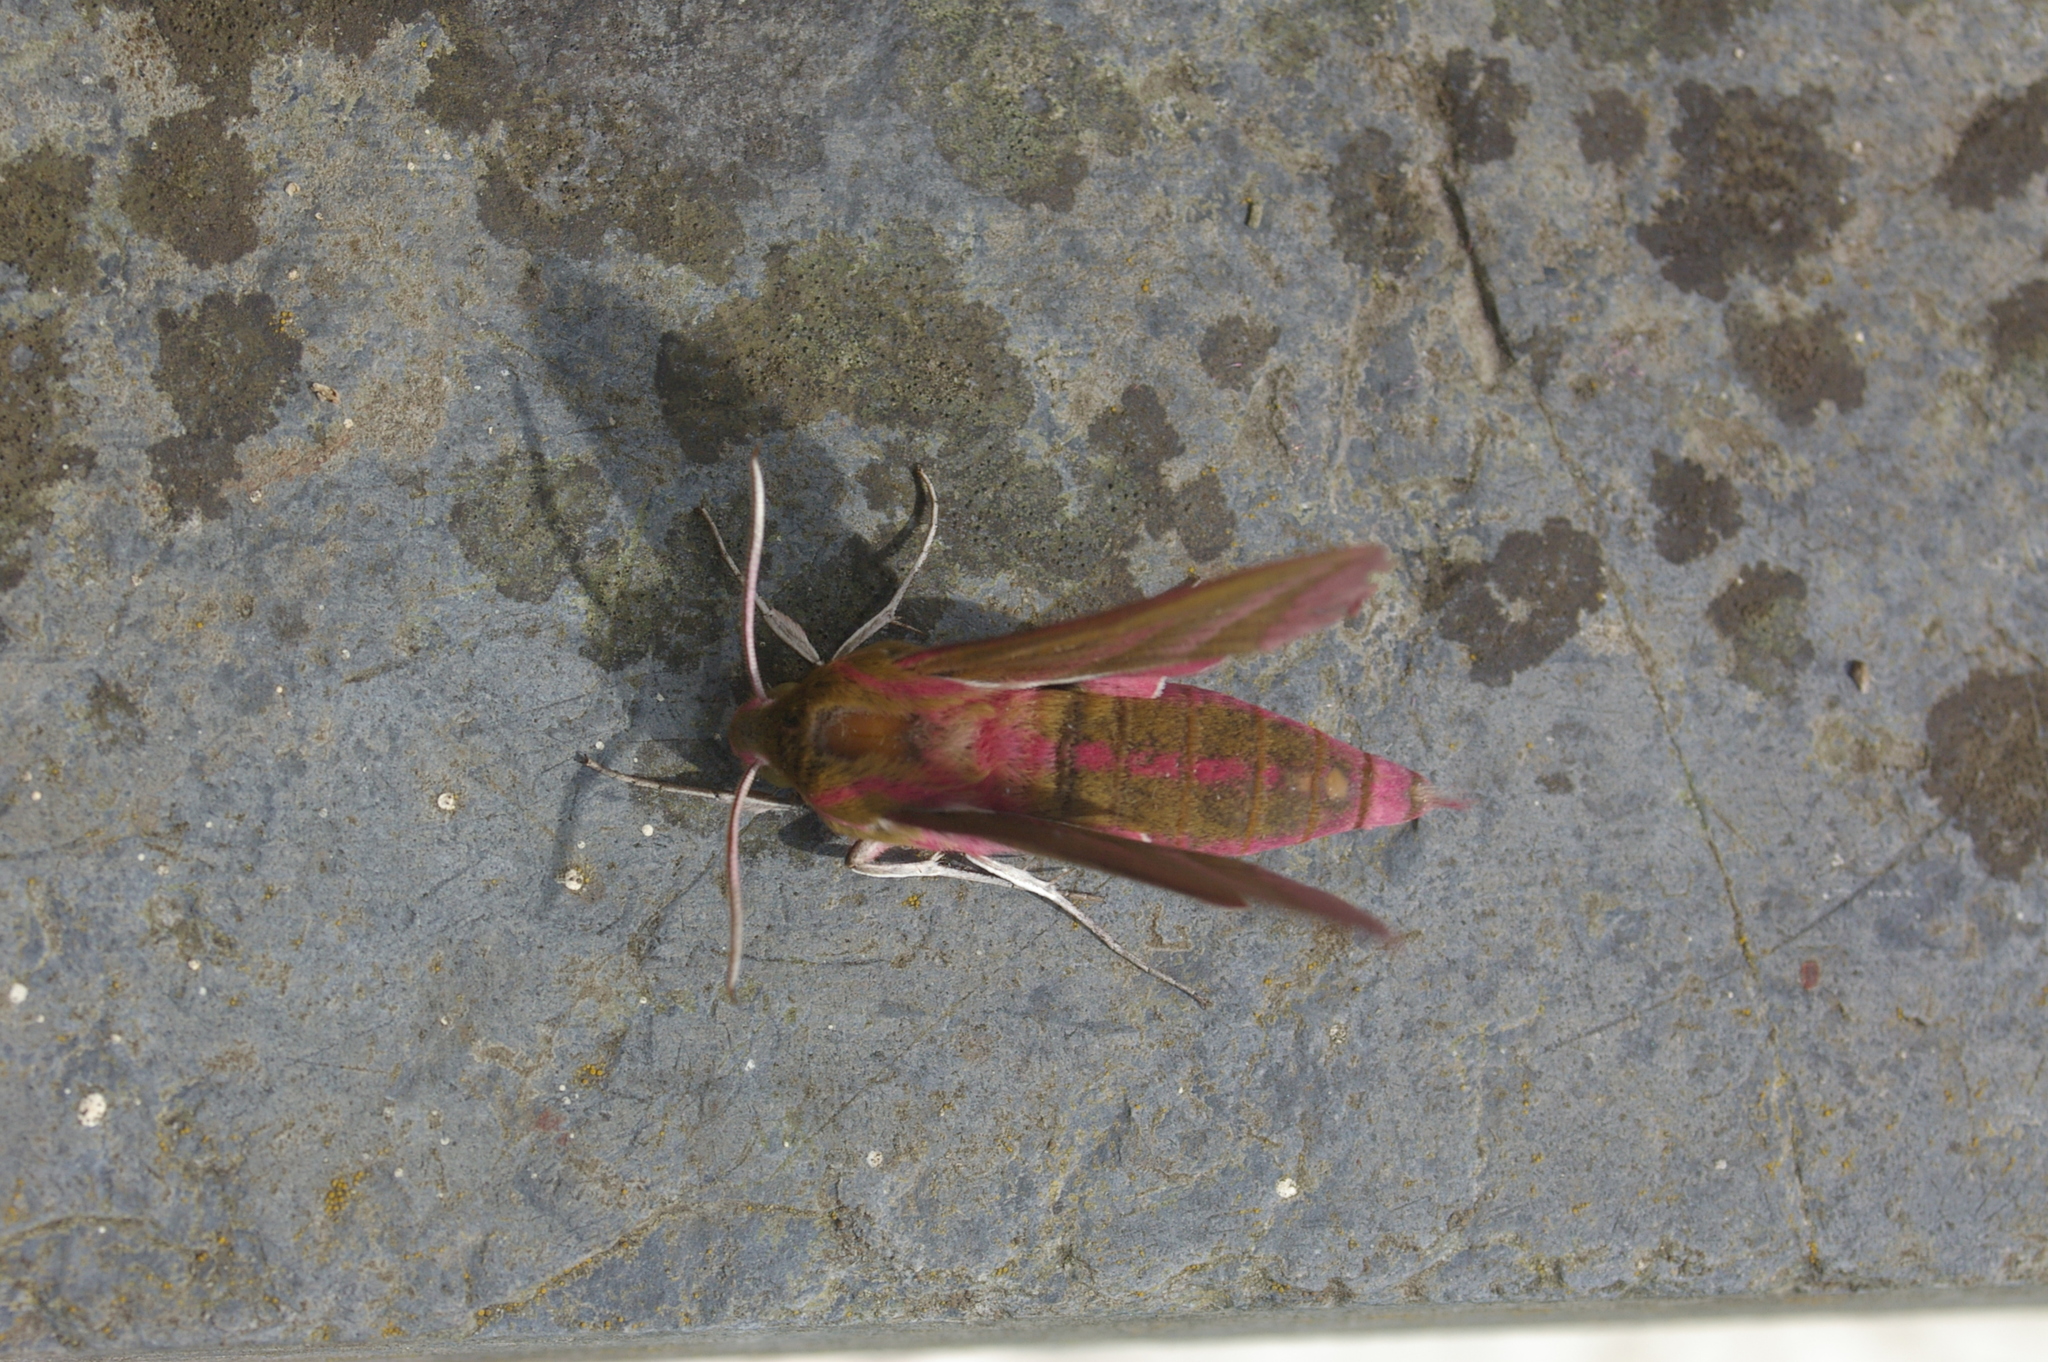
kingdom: Animalia
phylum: Arthropoda
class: Insecta
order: Lepidoptera
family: Sphingidae
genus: Deilephila
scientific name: Deilephila elpenor
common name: Elephant hawk-moth
